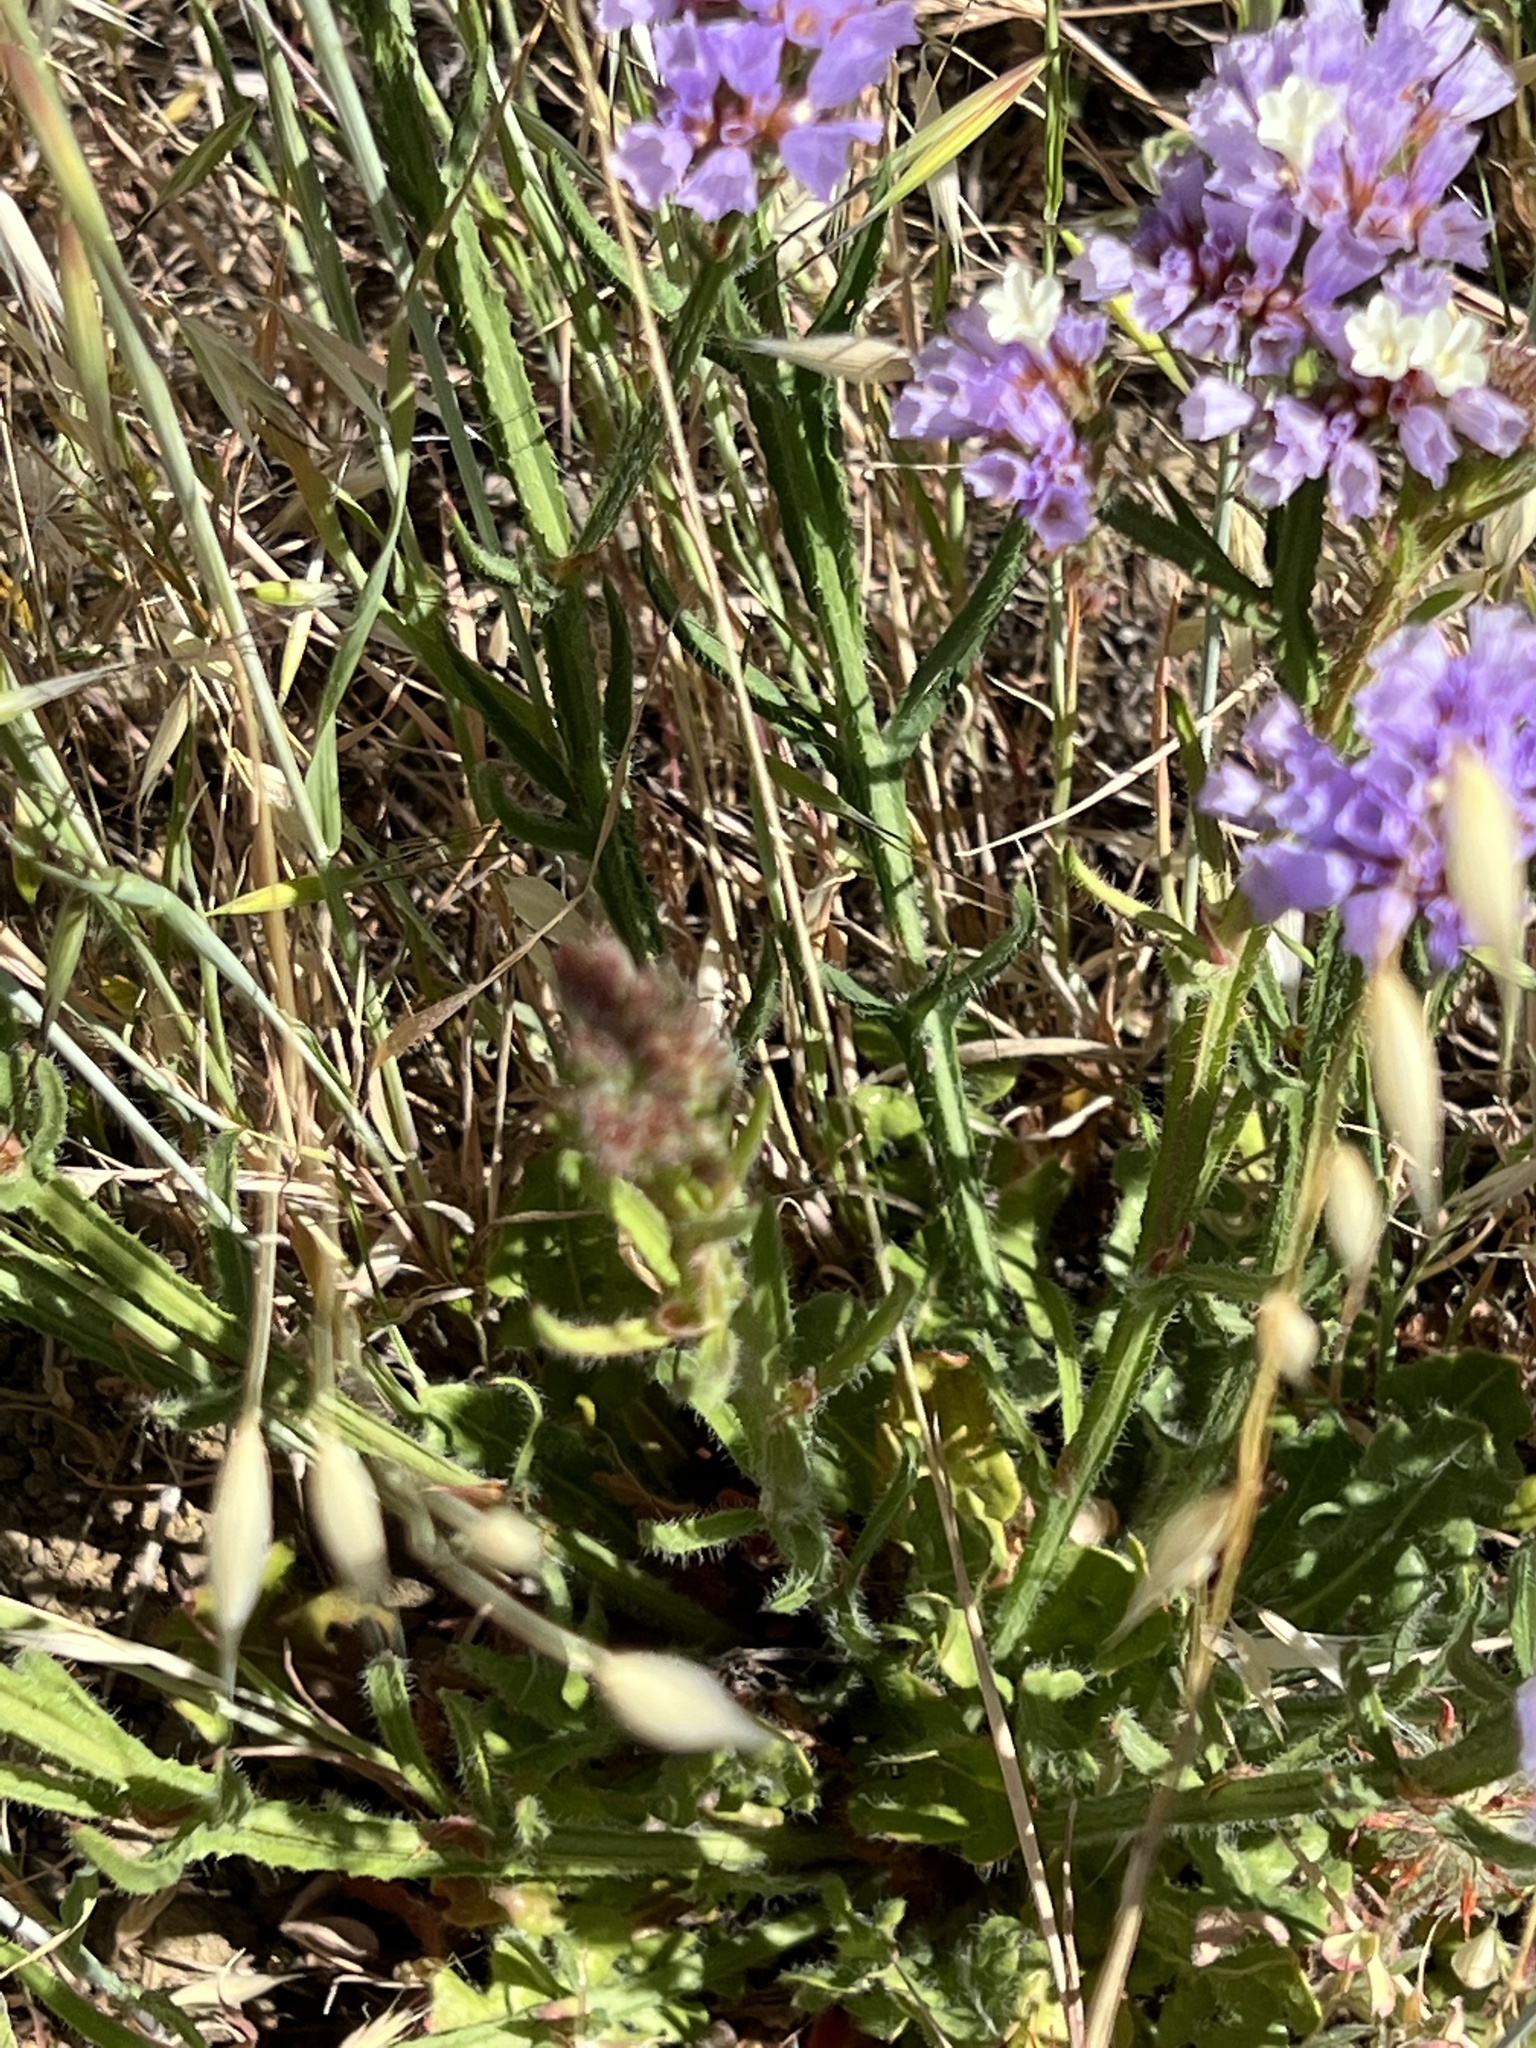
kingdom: Plantae
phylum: Tracheophyta
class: Magnoliopsida
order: Caryophyllales
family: Plumbaginaceae
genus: Limonium
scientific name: Limonium sinuatum
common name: Statice
